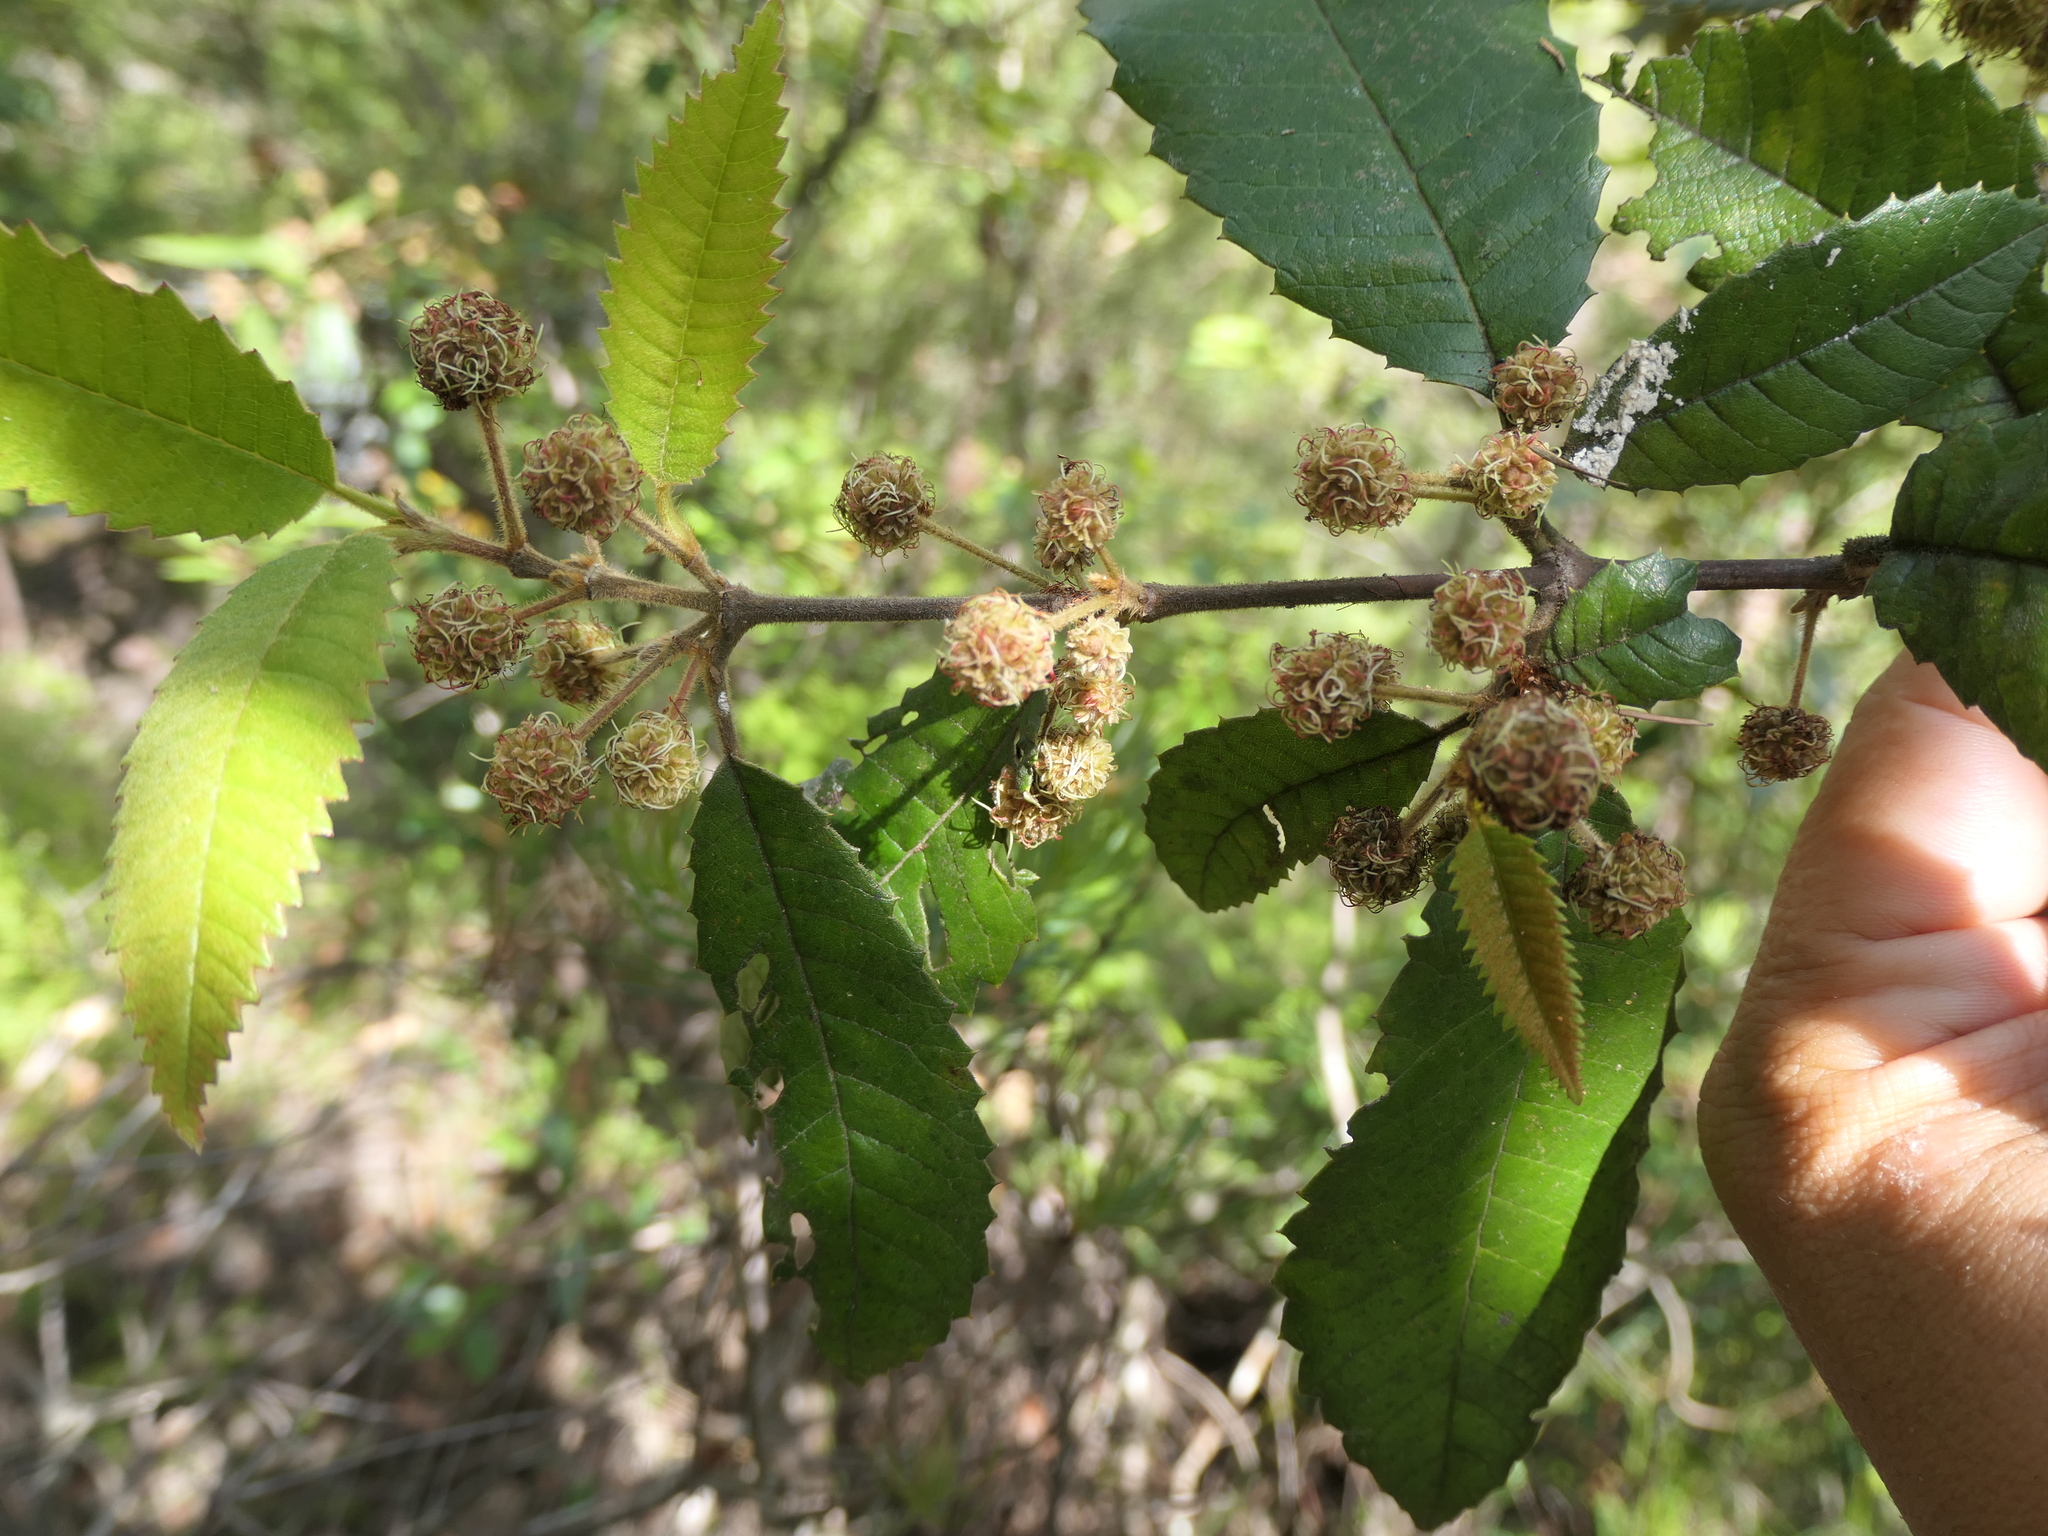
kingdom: Plantae
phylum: Tracheophyta
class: Magnoliopsida
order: Oxalidales
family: Cunoniaceae
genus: Callicoma
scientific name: Callicoma serratifolia
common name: Black wattle
